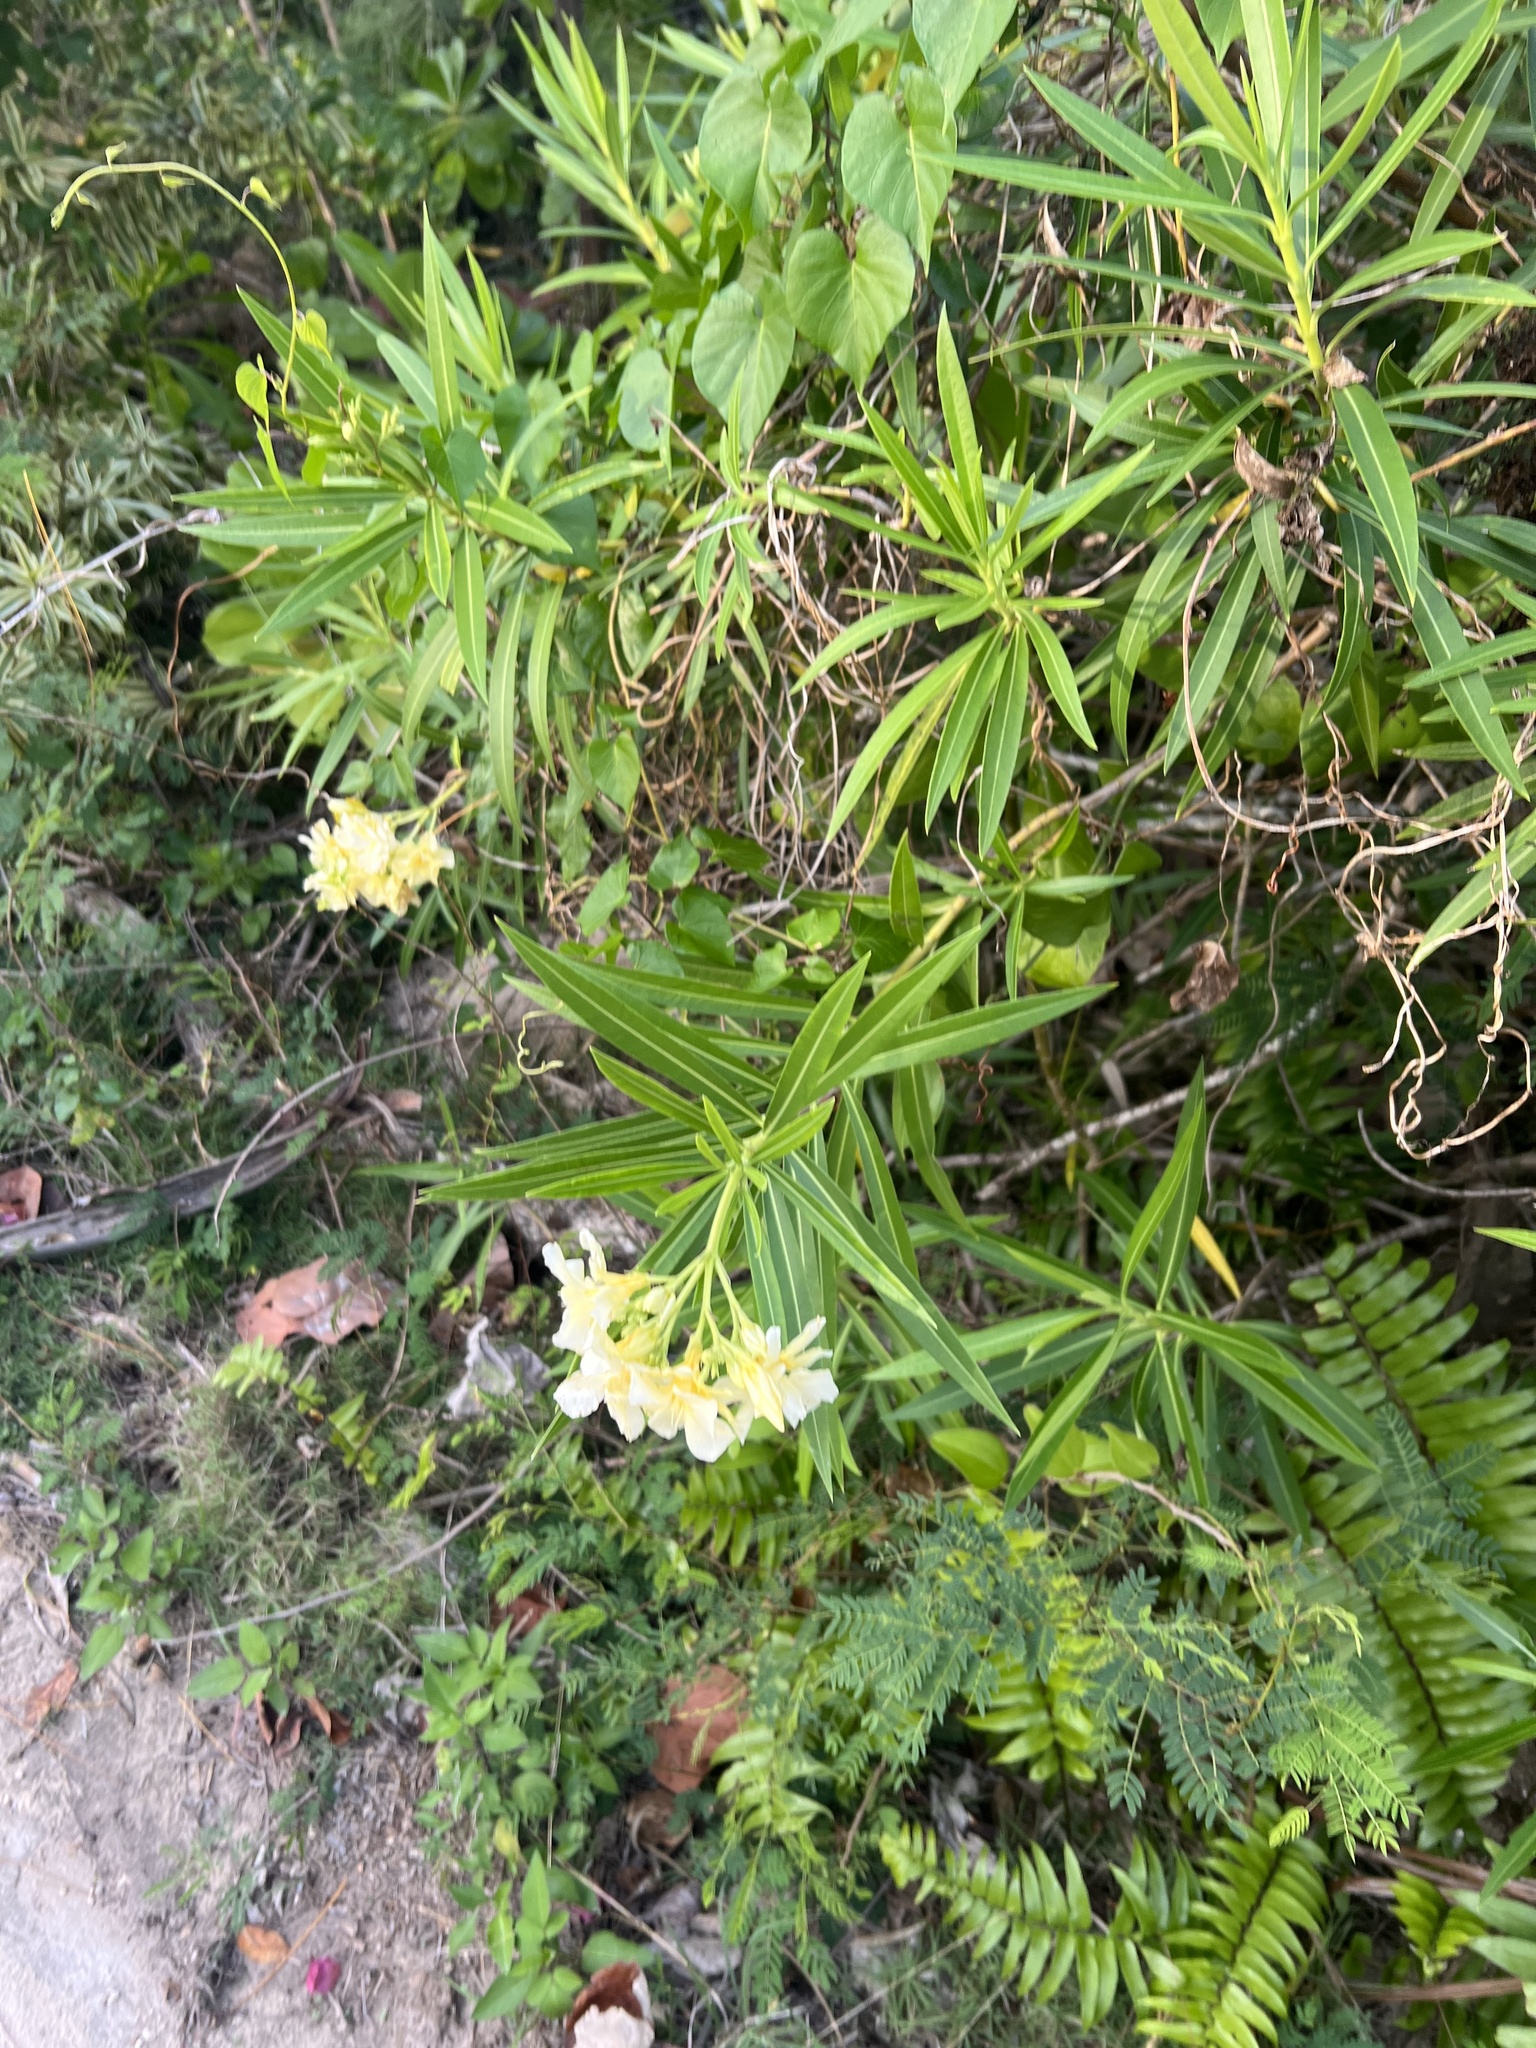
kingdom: Plantae
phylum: Tracheophyta
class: Magnoliopsida
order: Gentianales
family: Apocynaceae
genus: Nerium
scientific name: Nerium oleander
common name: Oleander
